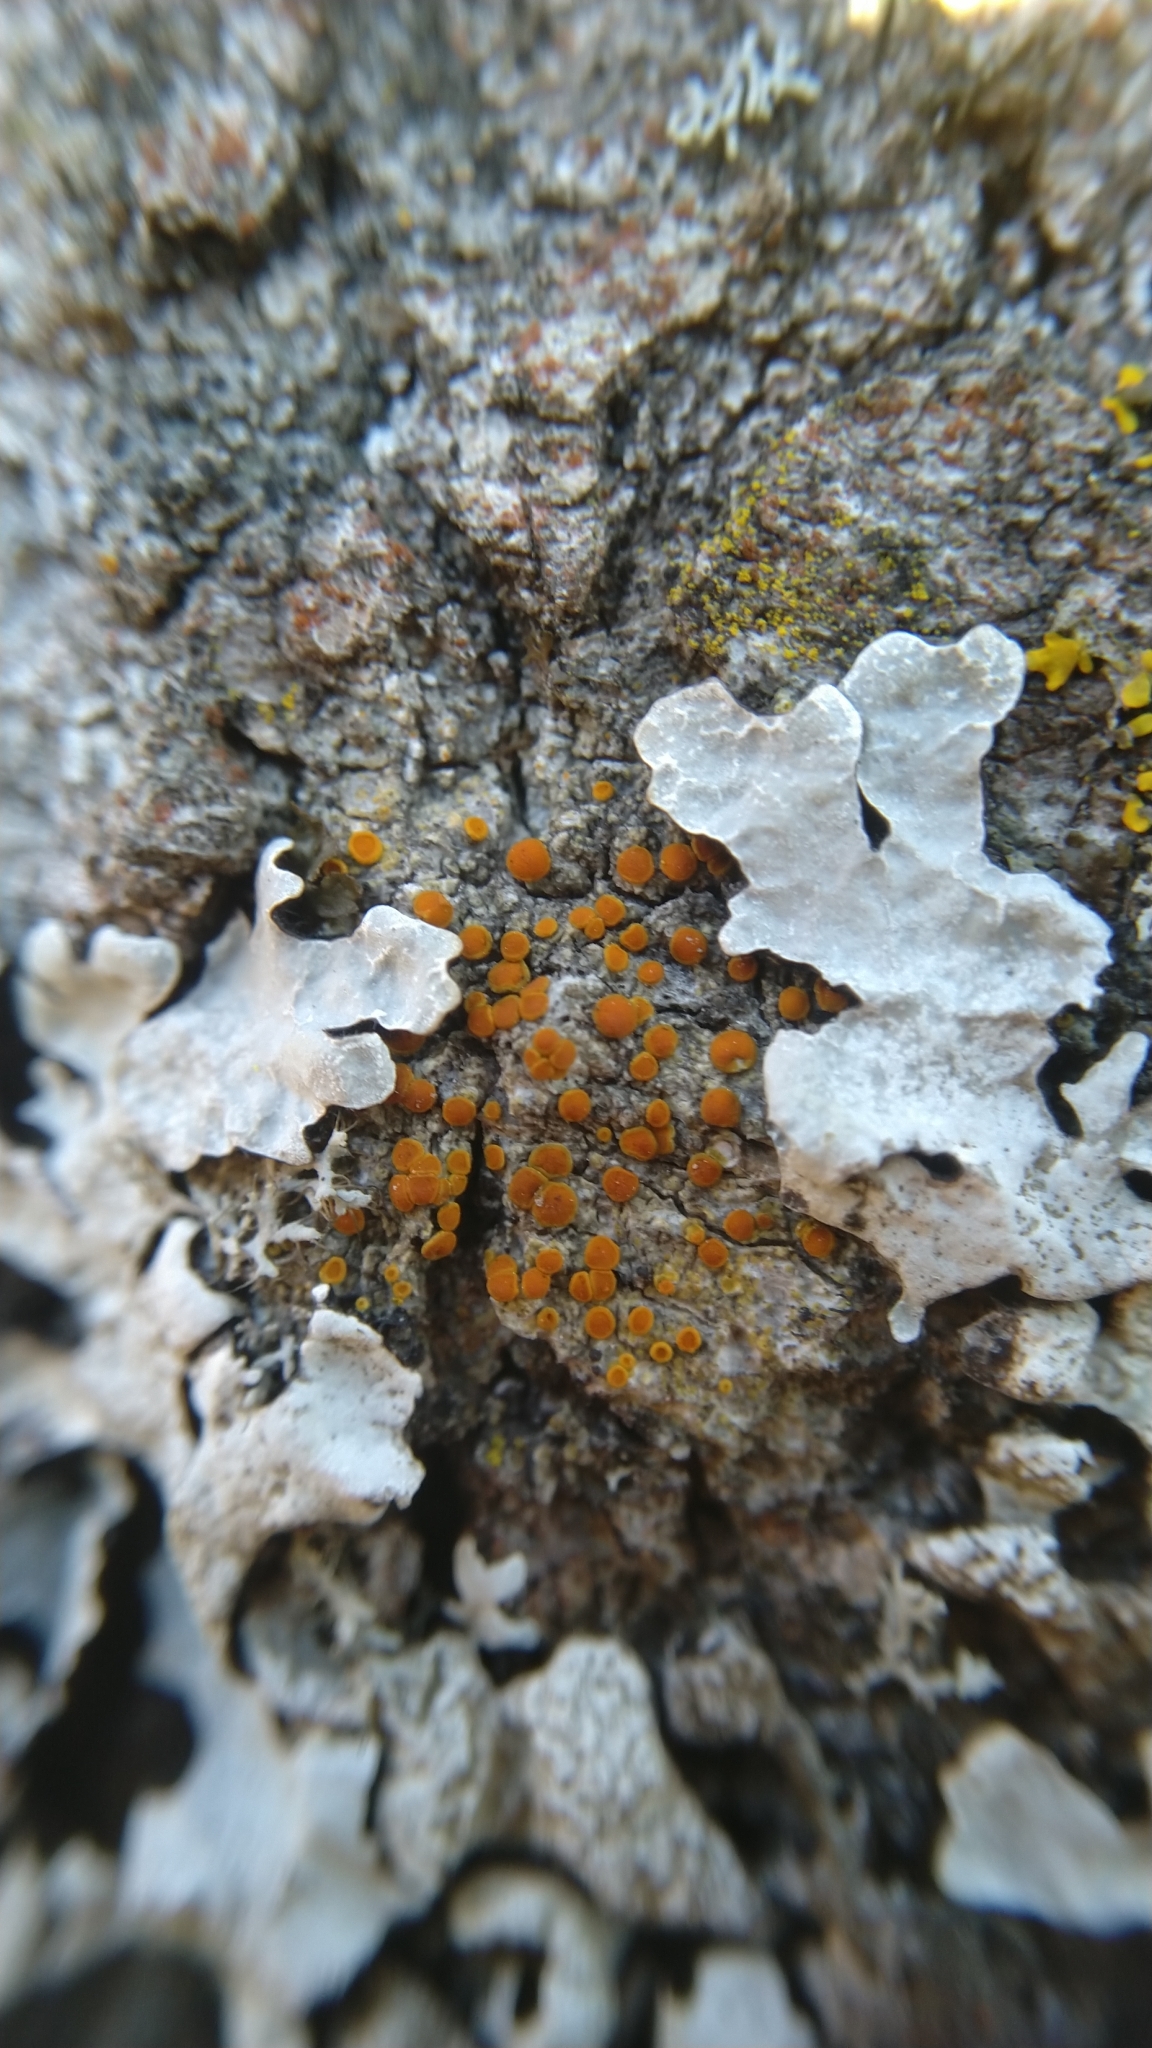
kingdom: Fungi
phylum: Ascomycota
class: Lecanoromycetes
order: Teloschistales
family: Teloschistaceae
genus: Opeltia
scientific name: Opeltia flavorubescens
